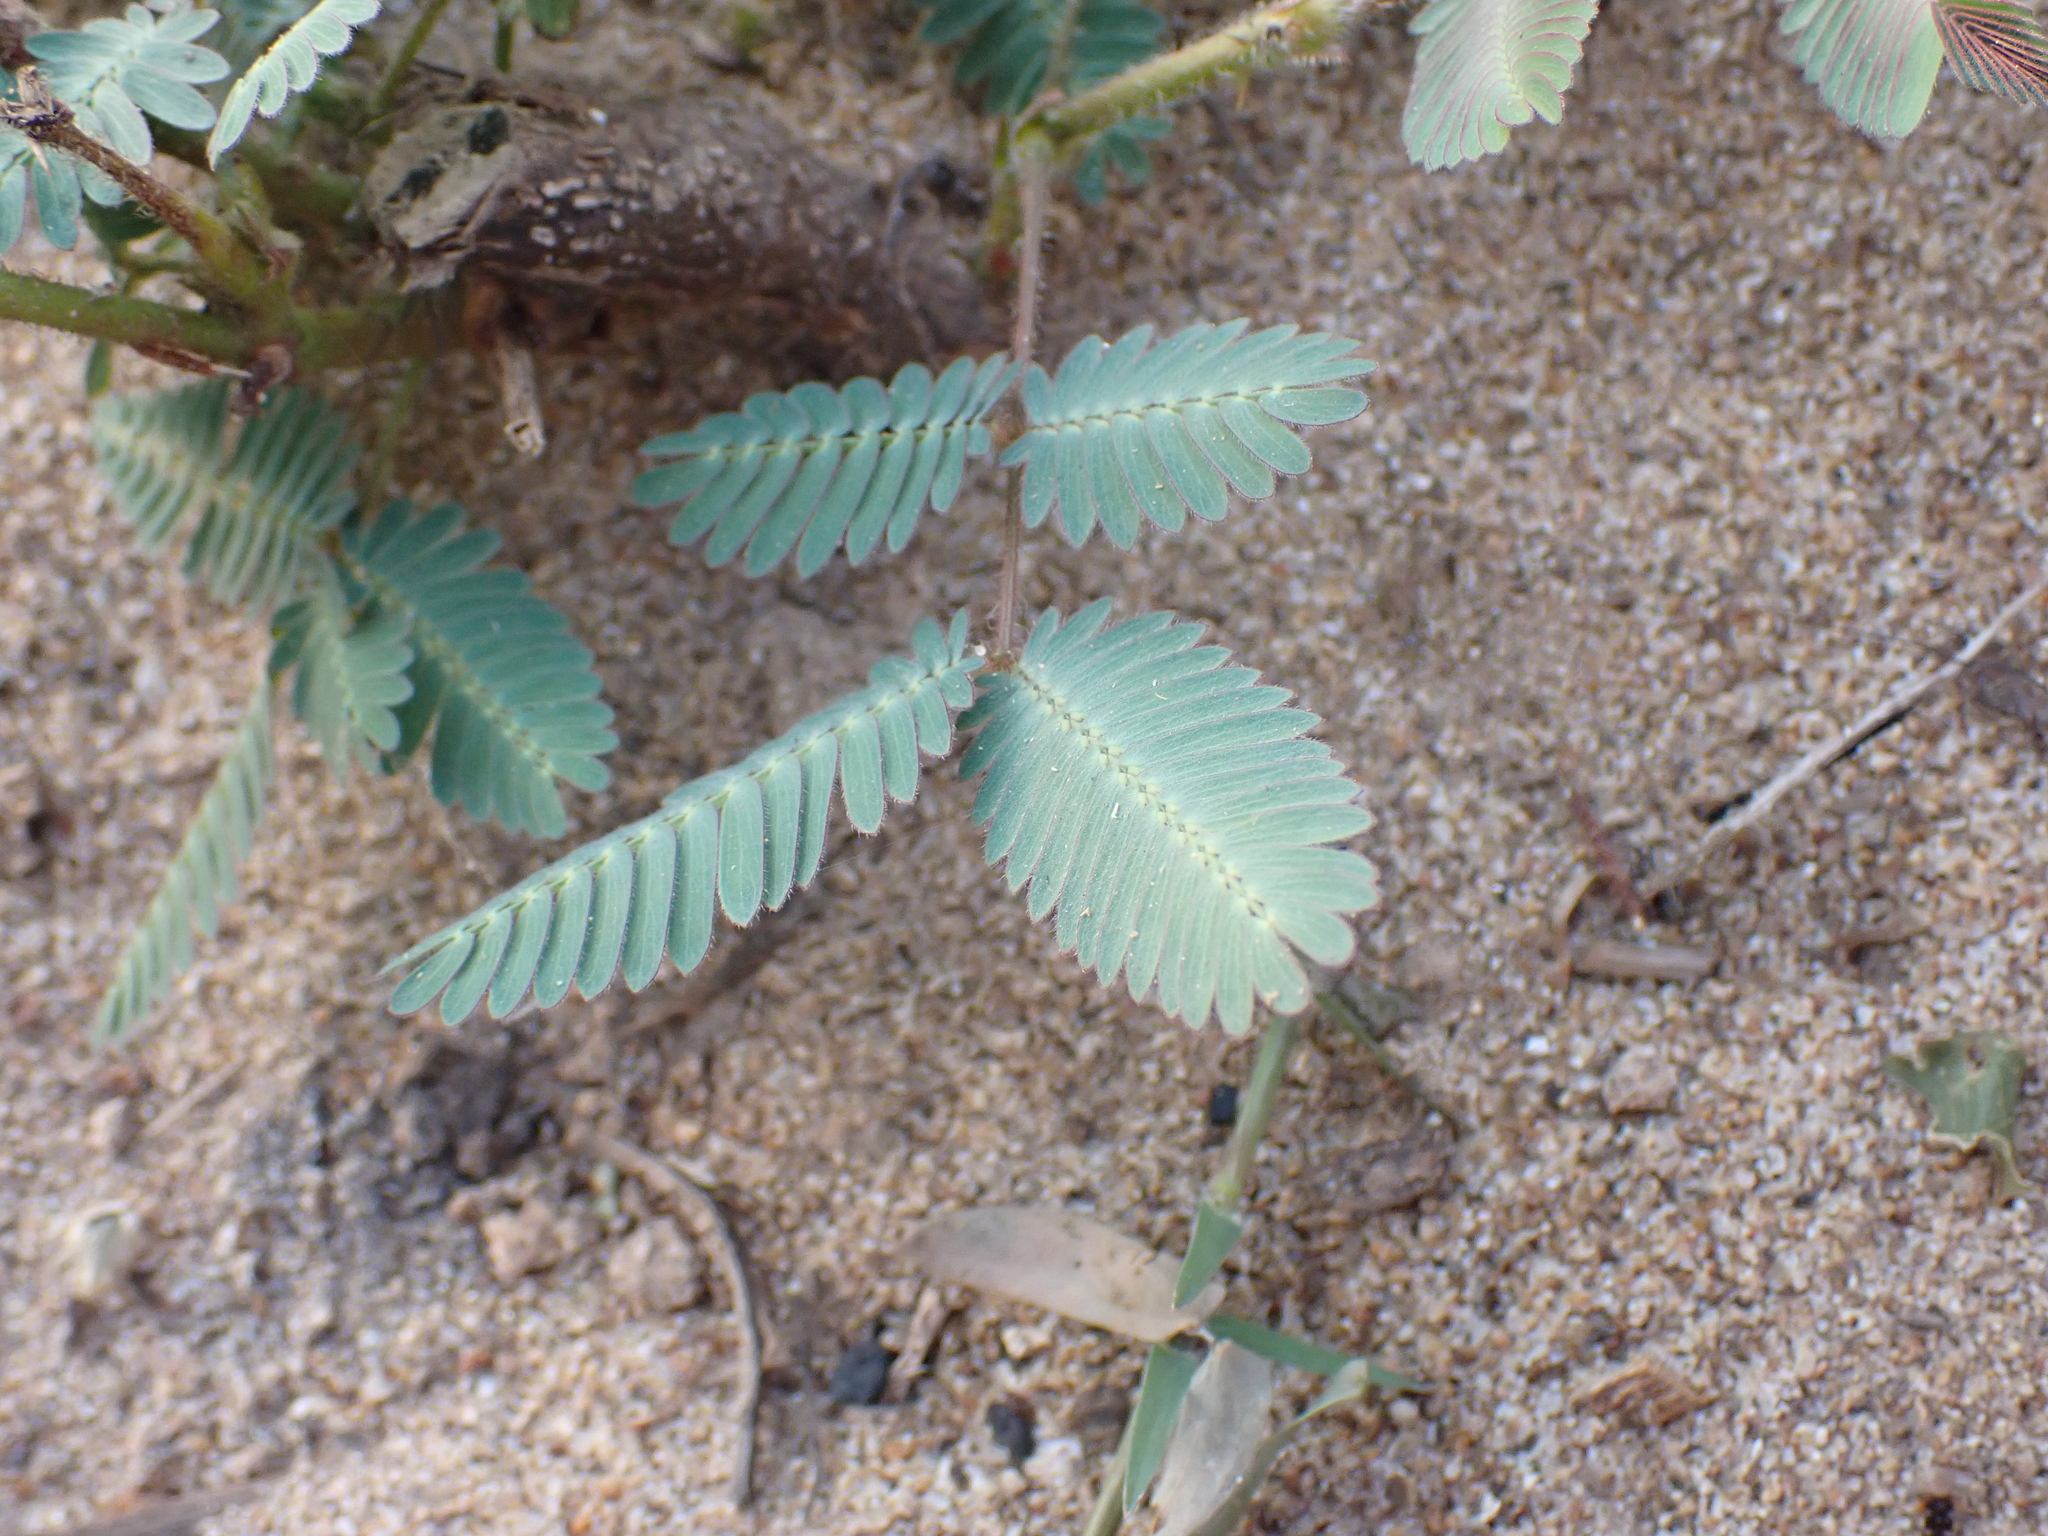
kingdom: Plantae
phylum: Tracheophyta
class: Magnoliopsida
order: Fabales
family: Fabaceae
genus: Mimosa
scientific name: Mimosa pudica
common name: Sensitive plant
